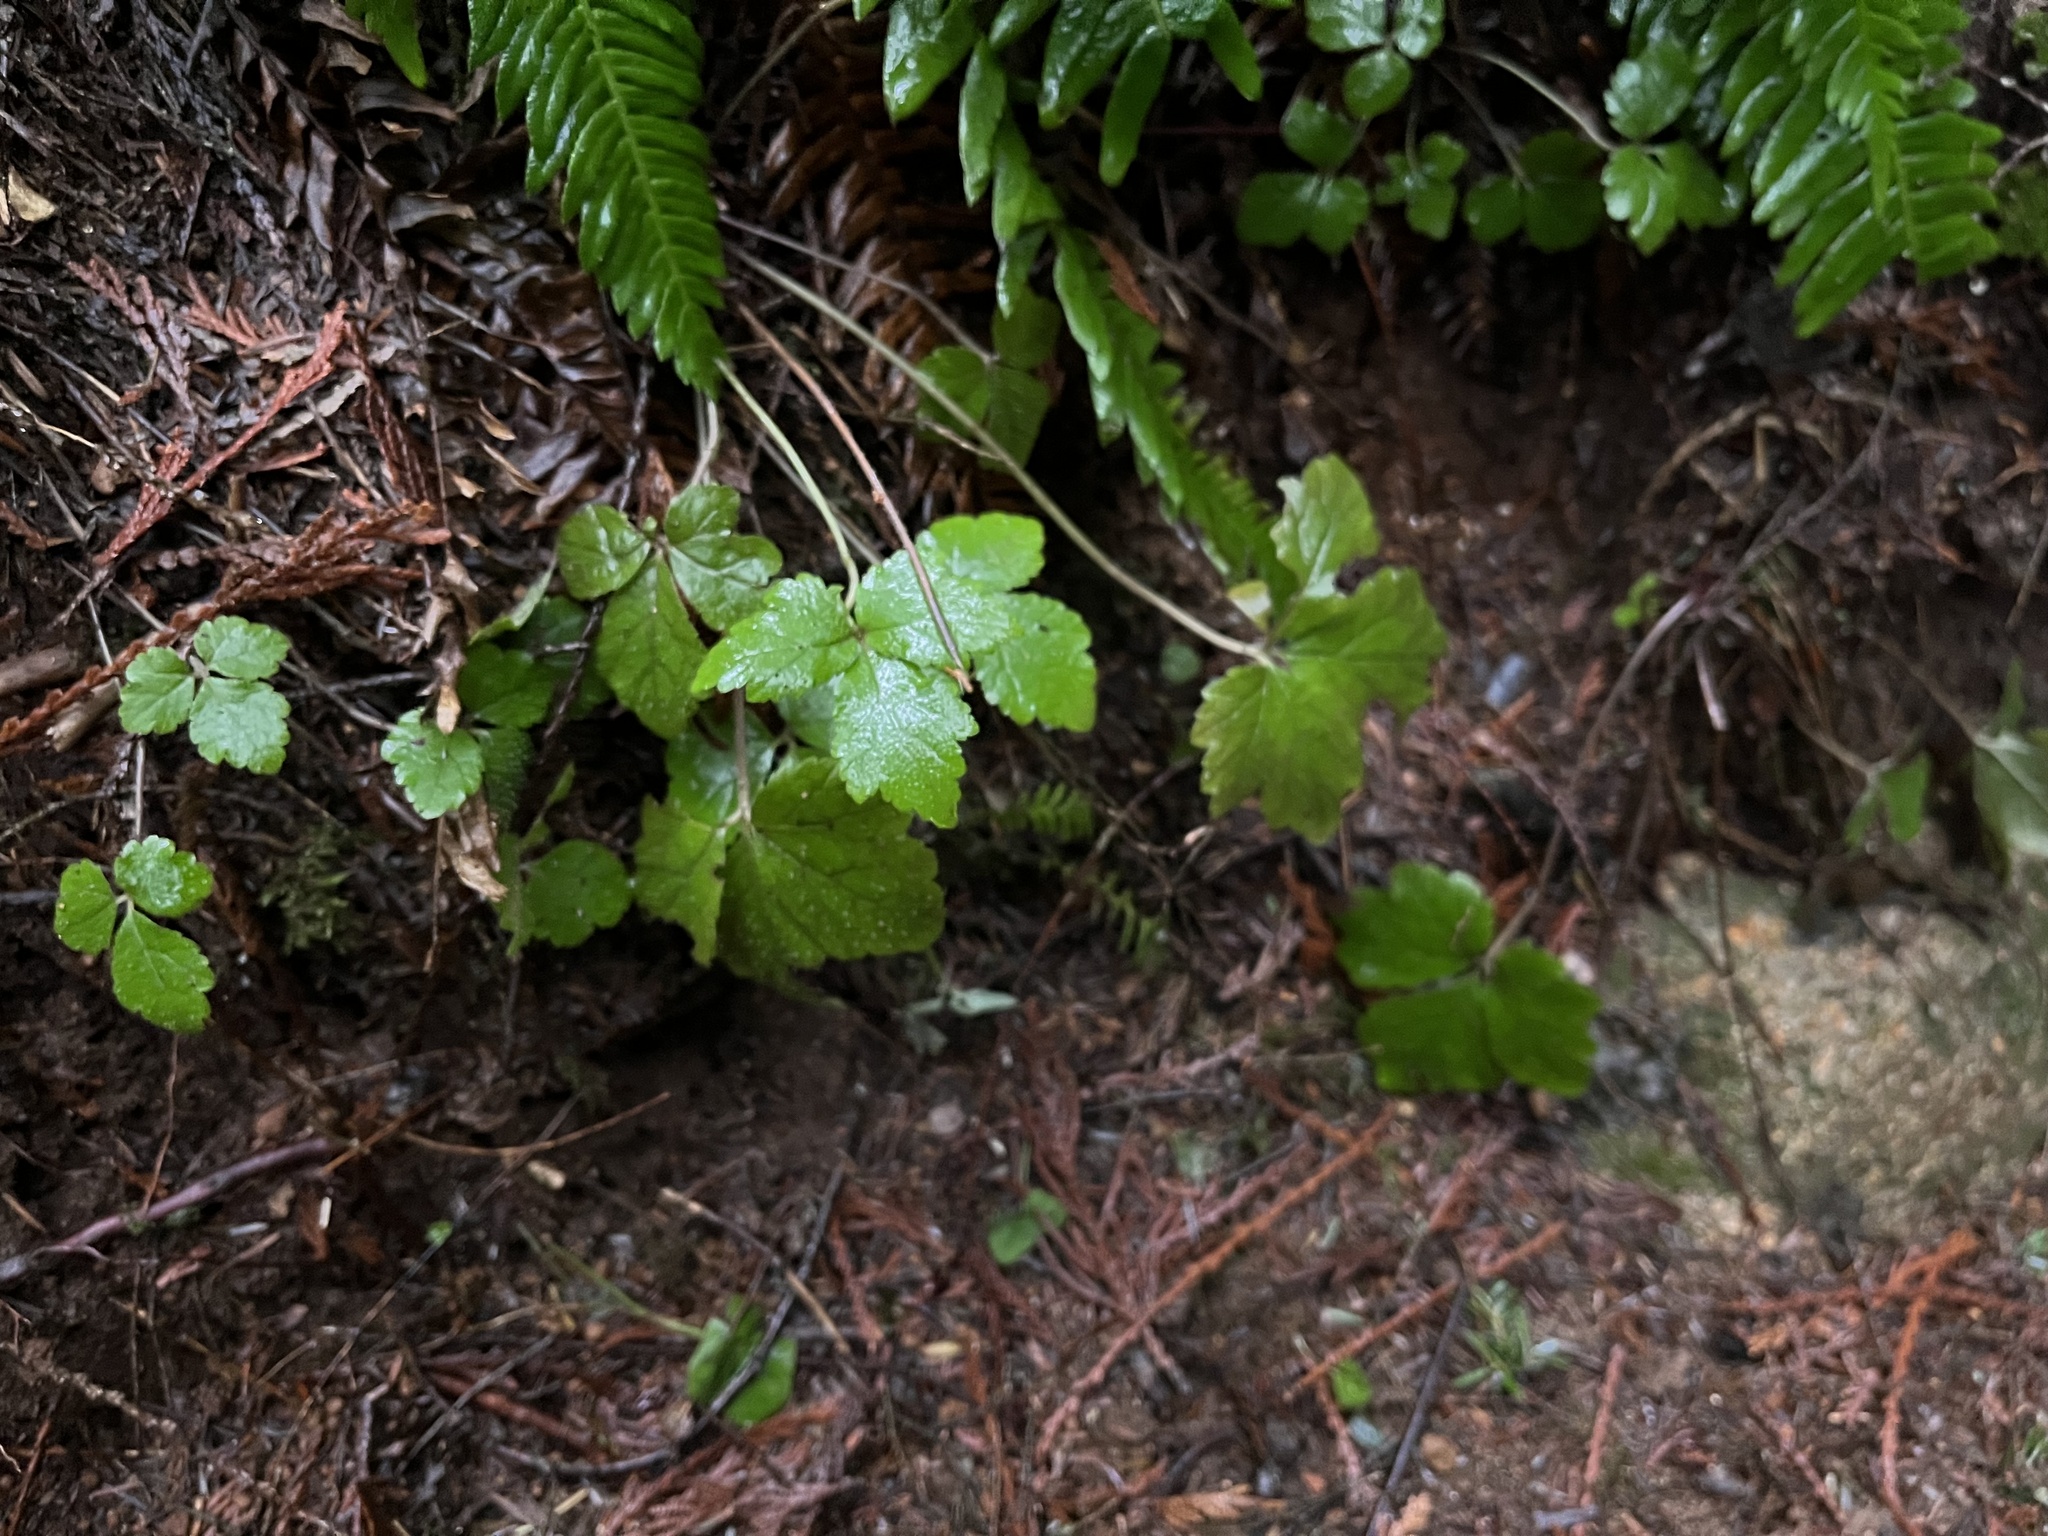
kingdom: Plantae
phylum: Tracheophyta
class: Magnoliopsida
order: Saxifragales
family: Saxifragaceae
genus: Tiarella
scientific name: Tiarella trifoliata
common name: Sugar-scoop
